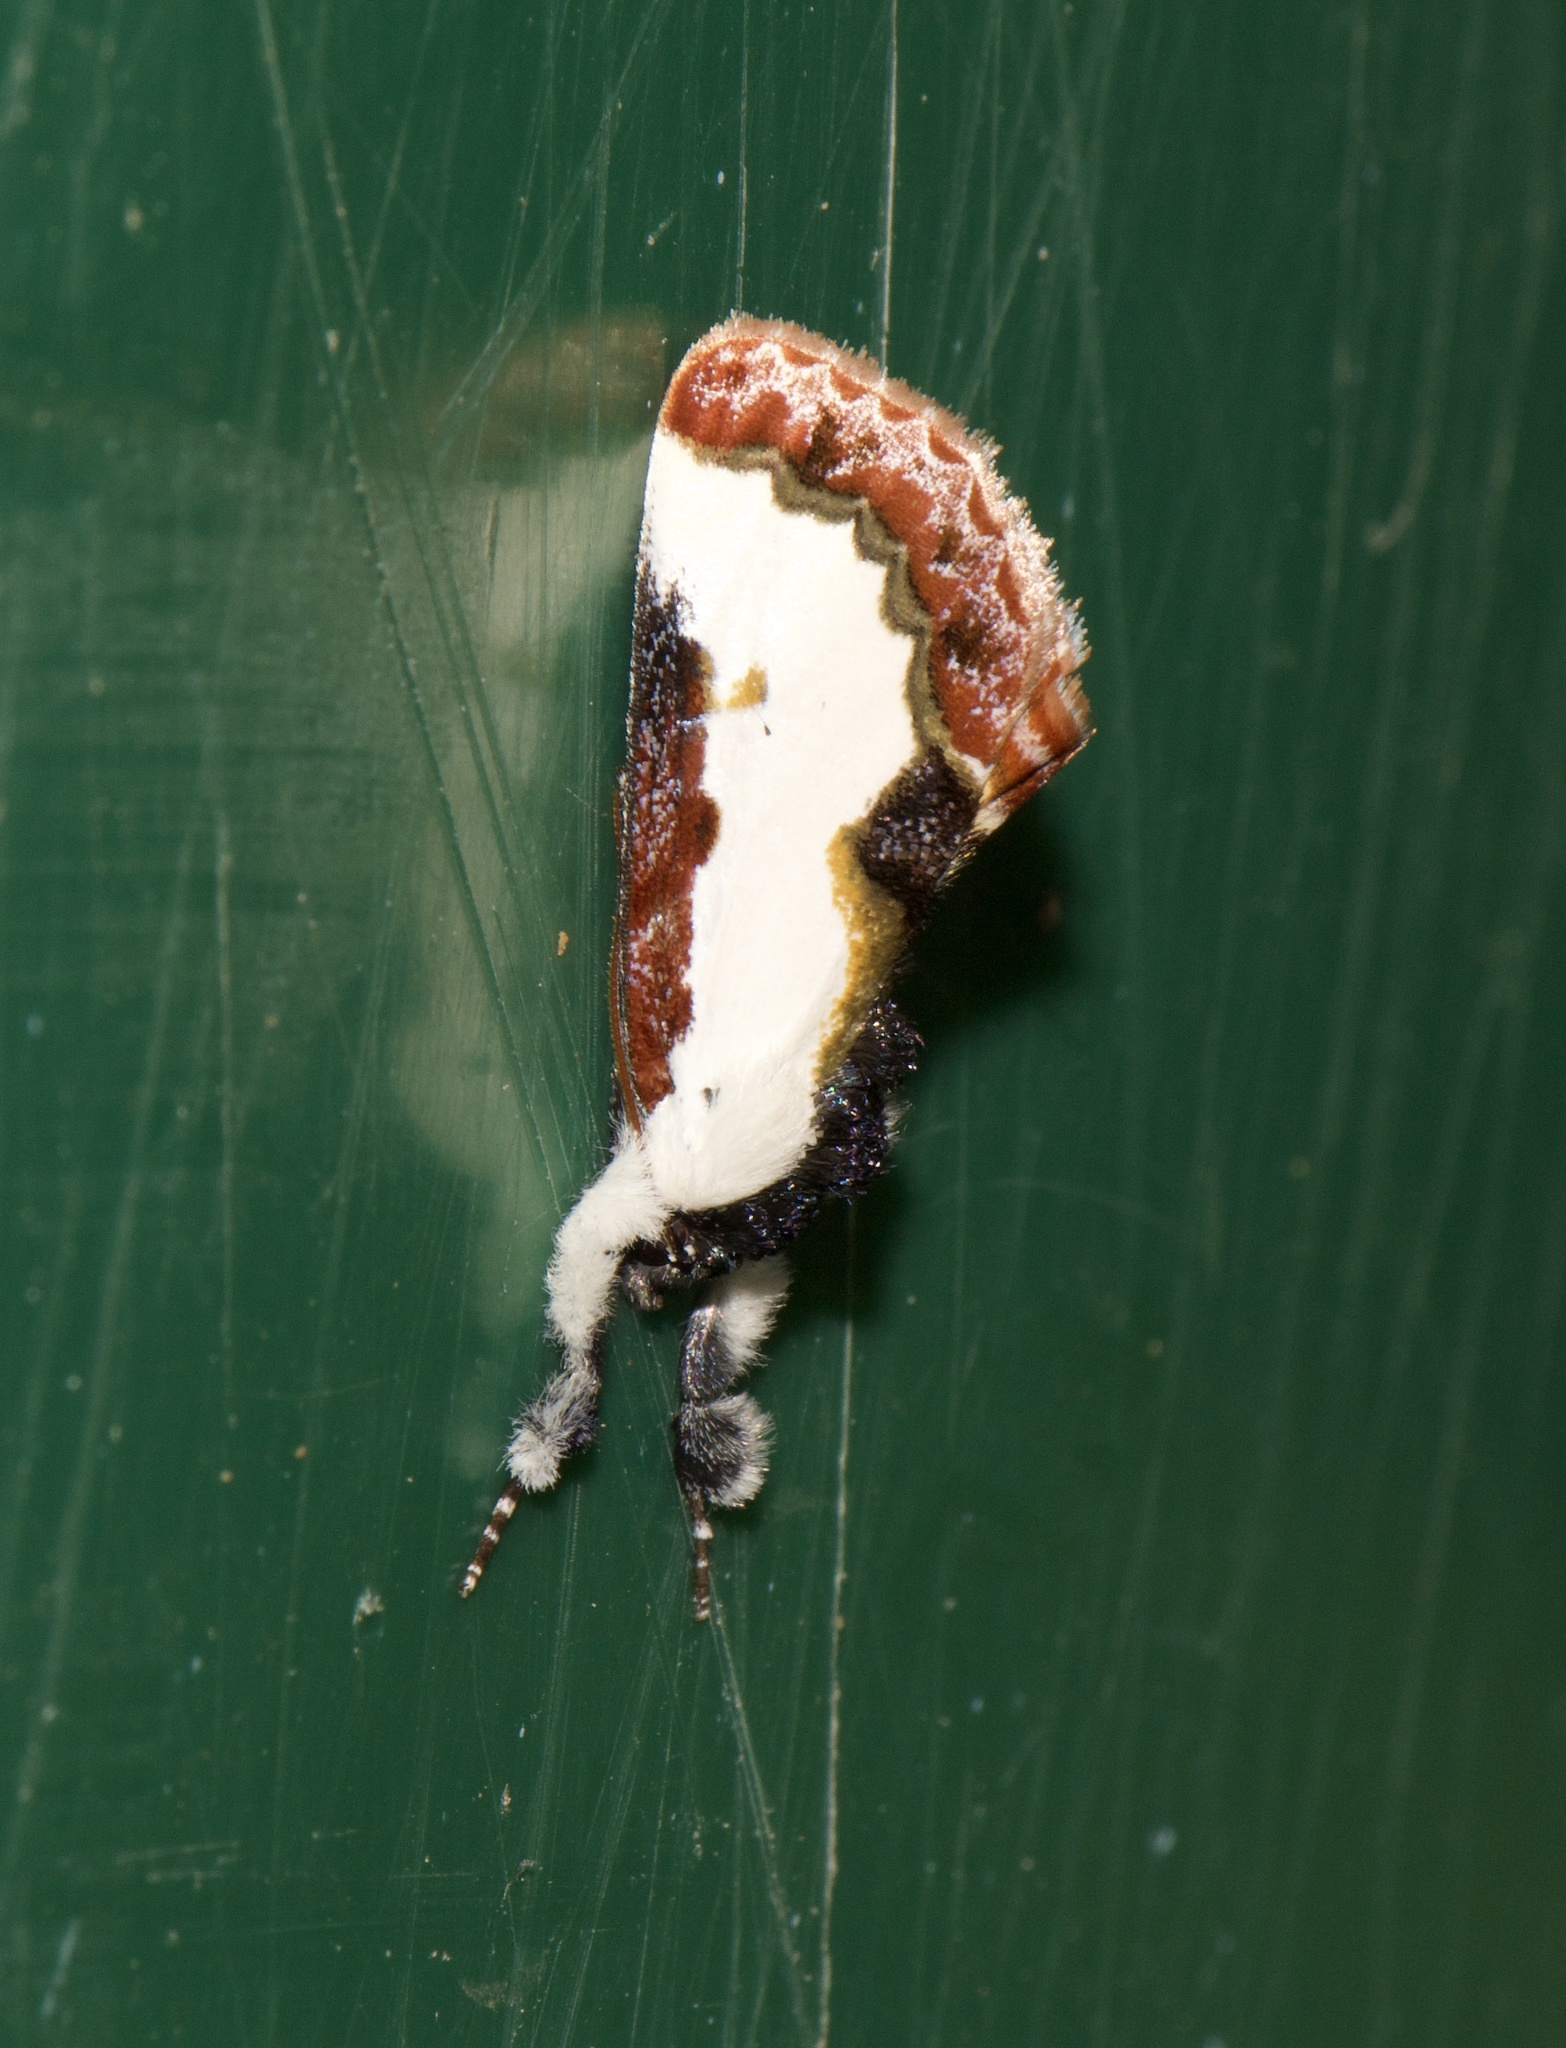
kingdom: Animalia
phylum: Arthropoda
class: Insecta
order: Lepidoptera
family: Noctuidae
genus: Eudryas
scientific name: Eudryas unio
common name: Pearly wood-nymph
